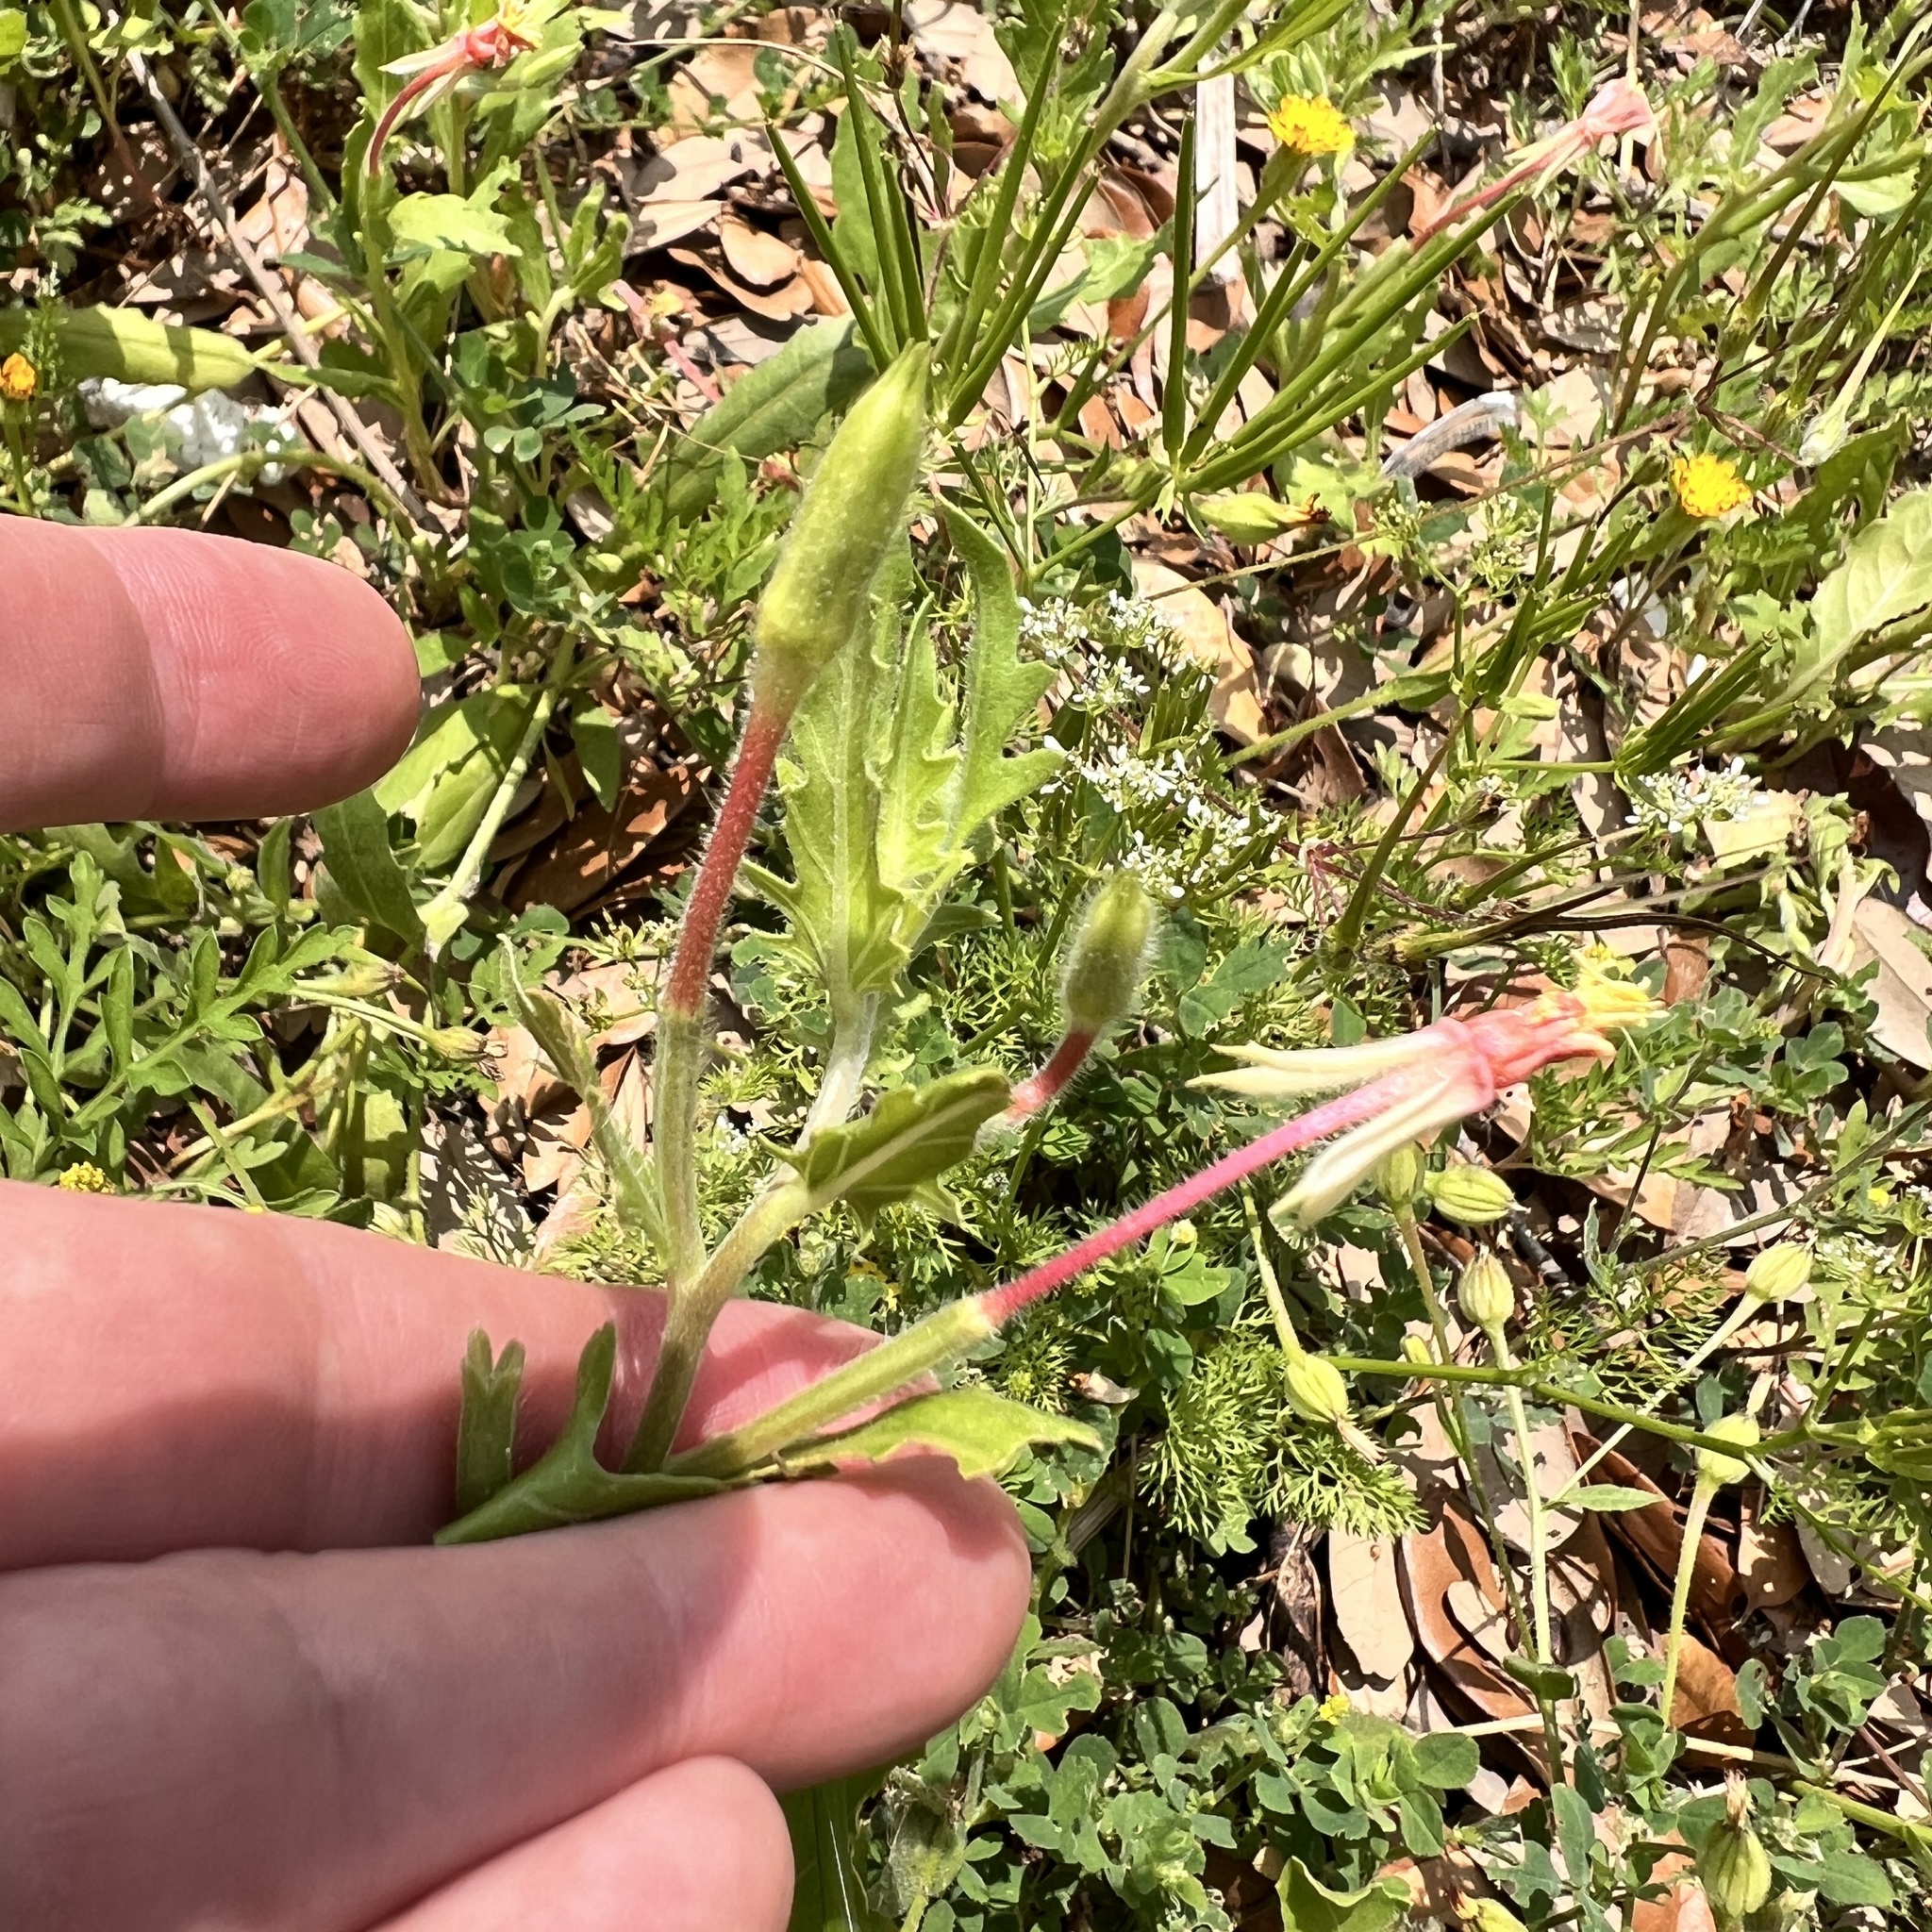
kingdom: Plantae
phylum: Tracheophyta
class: Magnoliopsida
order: Myrtales
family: Onagraceae
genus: Oenothera
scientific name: Oenothera laciniata
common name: Cut-leaved evening-primrose
